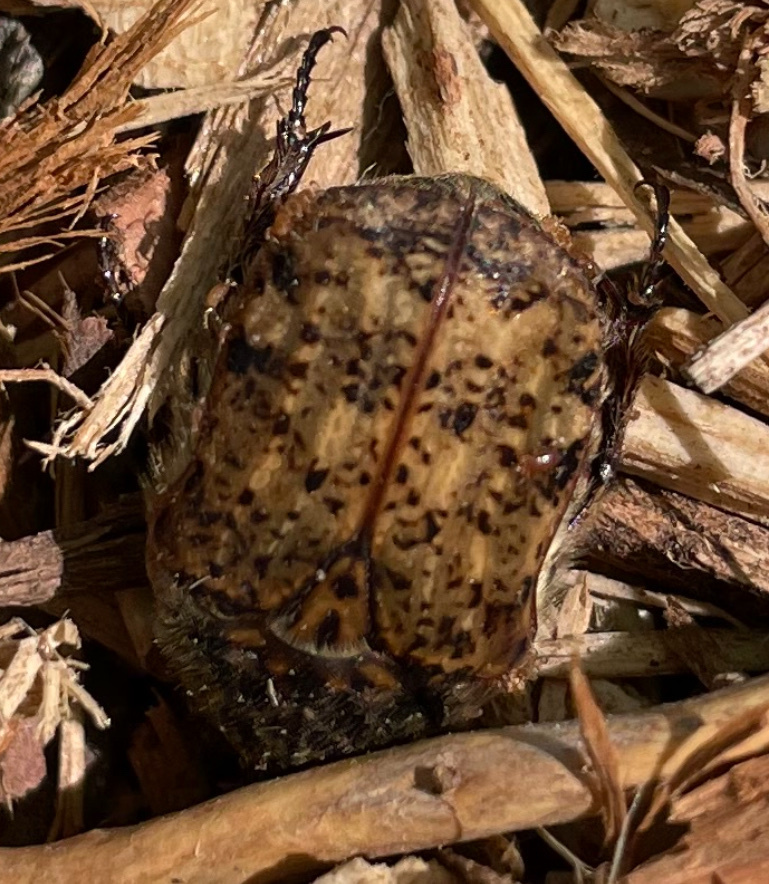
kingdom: Animalia
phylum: Arthropoda
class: Insecta
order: Coleoptera
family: Scarabaeidae
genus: Euphoria
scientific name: Euphoria inda
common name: Bumble flower beetle
